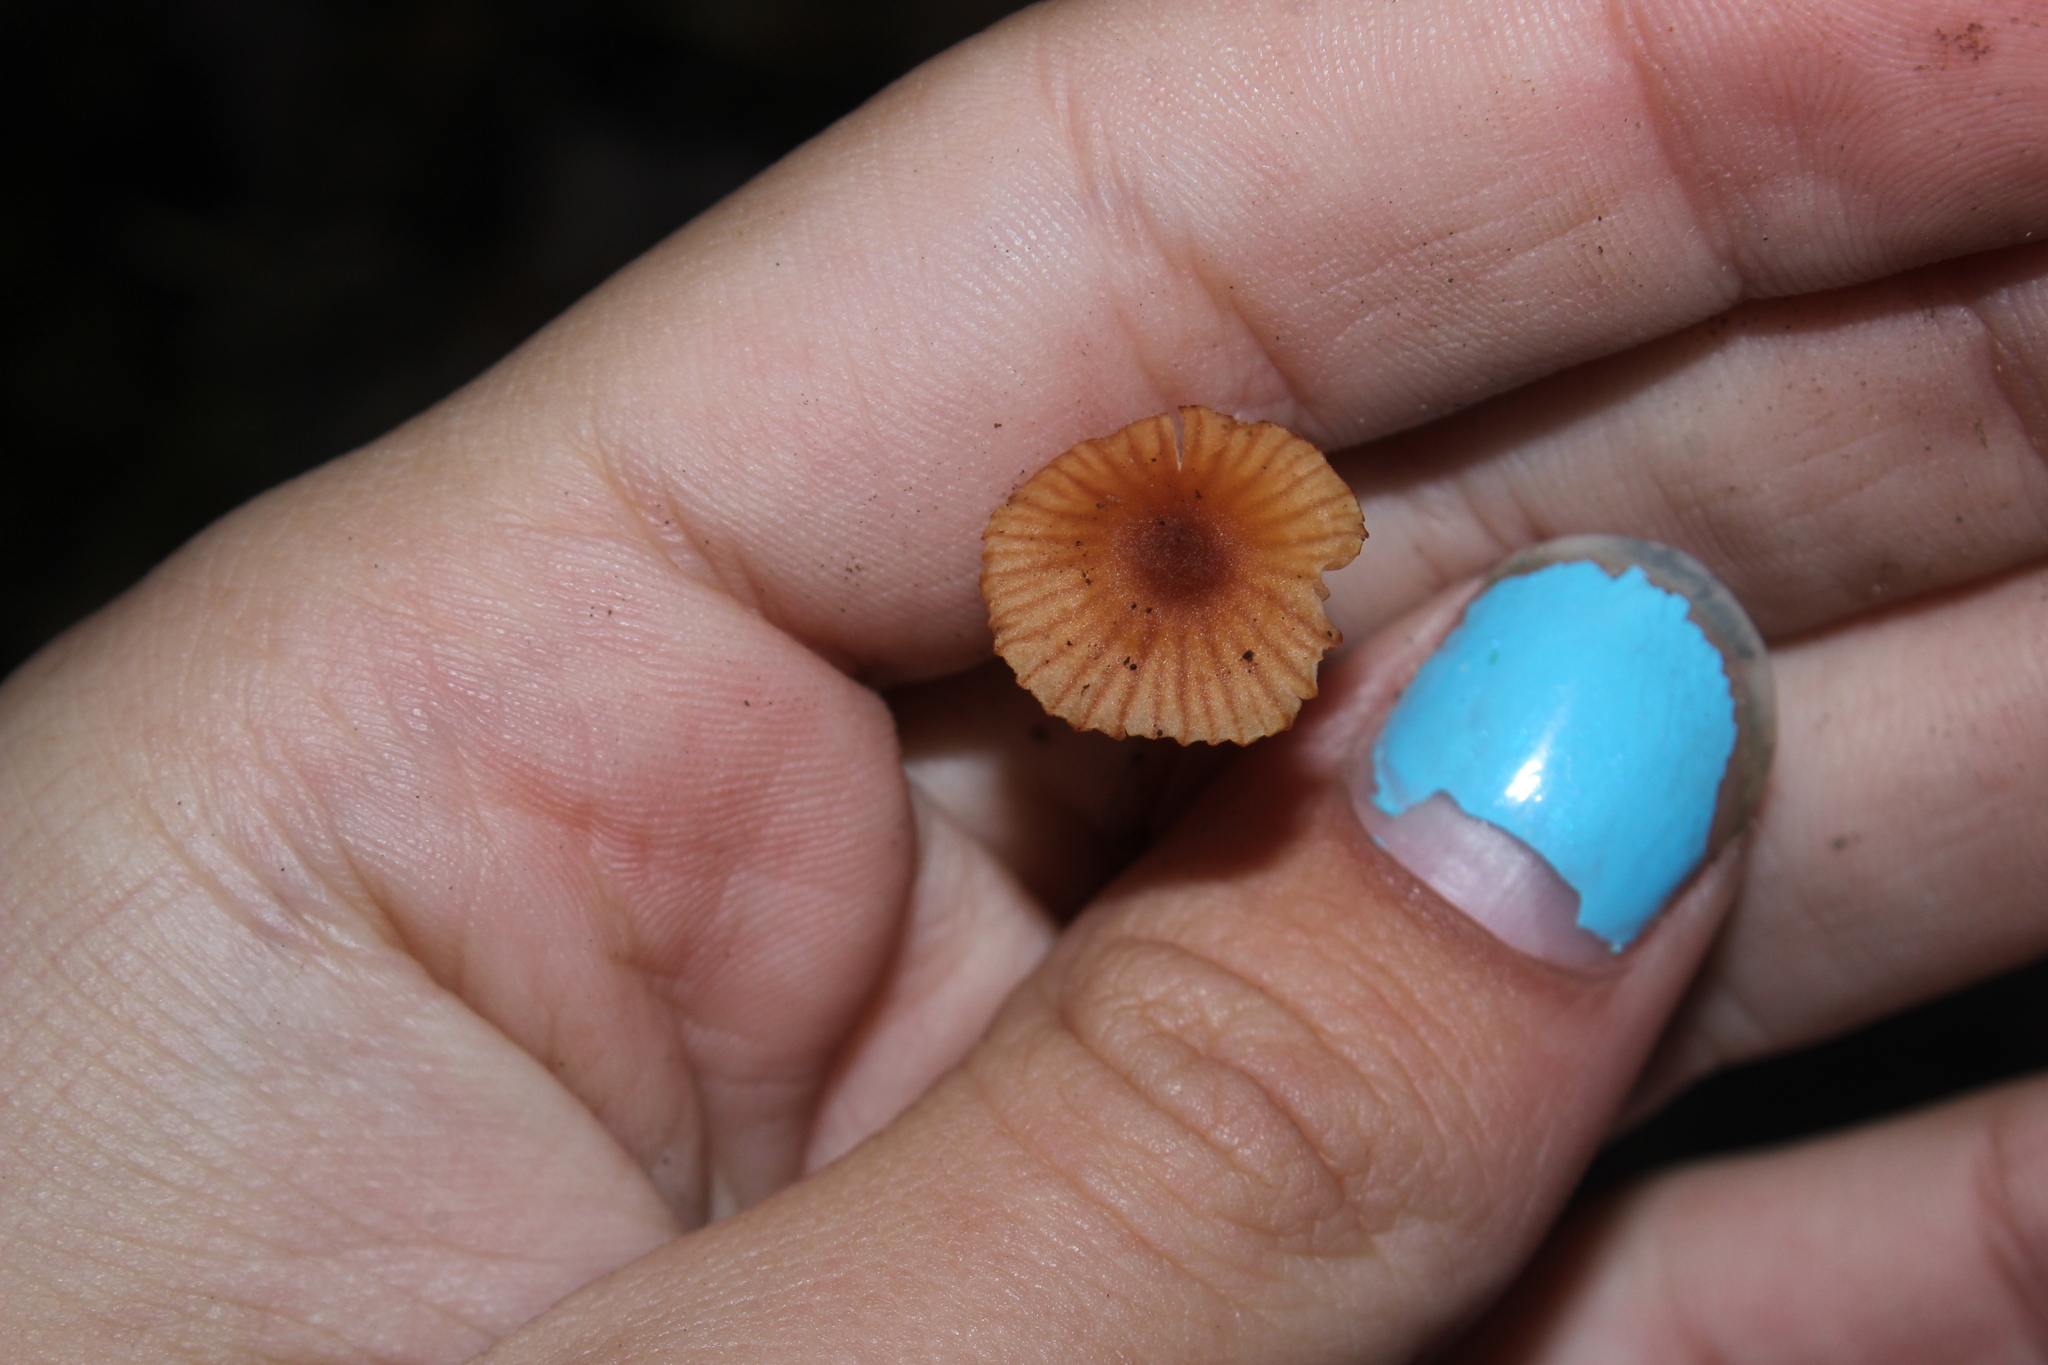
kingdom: Fungi
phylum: Basidiomycota
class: Agaricomycetes
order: Agaricales
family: Hydnangiaceae
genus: Laccaria
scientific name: Laccaria striatula
